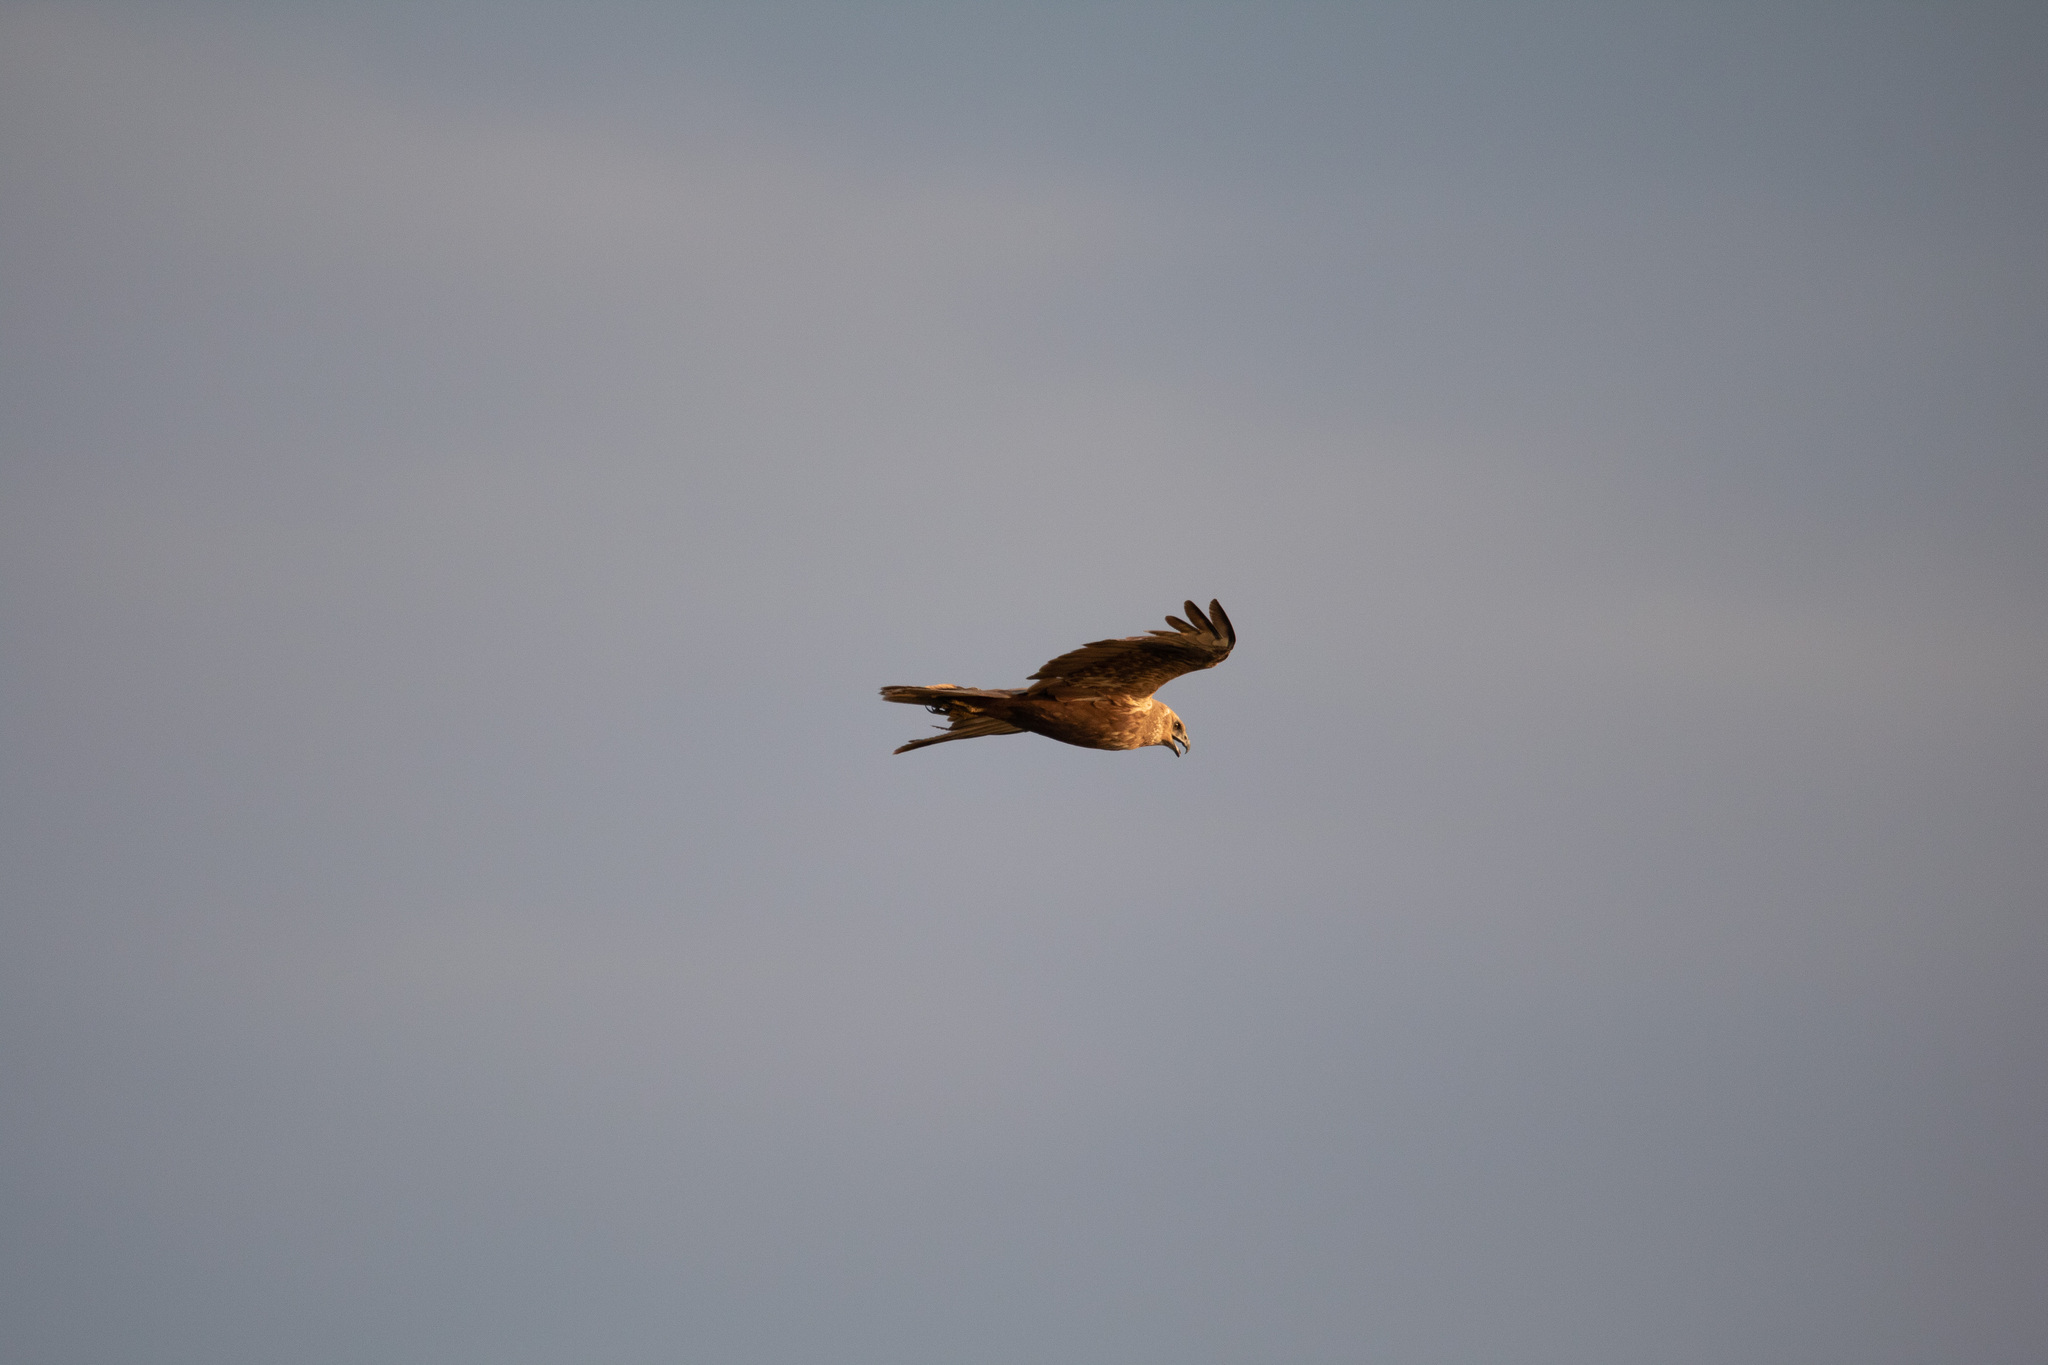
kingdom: Animalia
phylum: Chordata
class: Aves
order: Accipitriformes
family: Accipitridae
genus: Circus
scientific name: Circus aeruginosus
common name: Western marsh harrier
